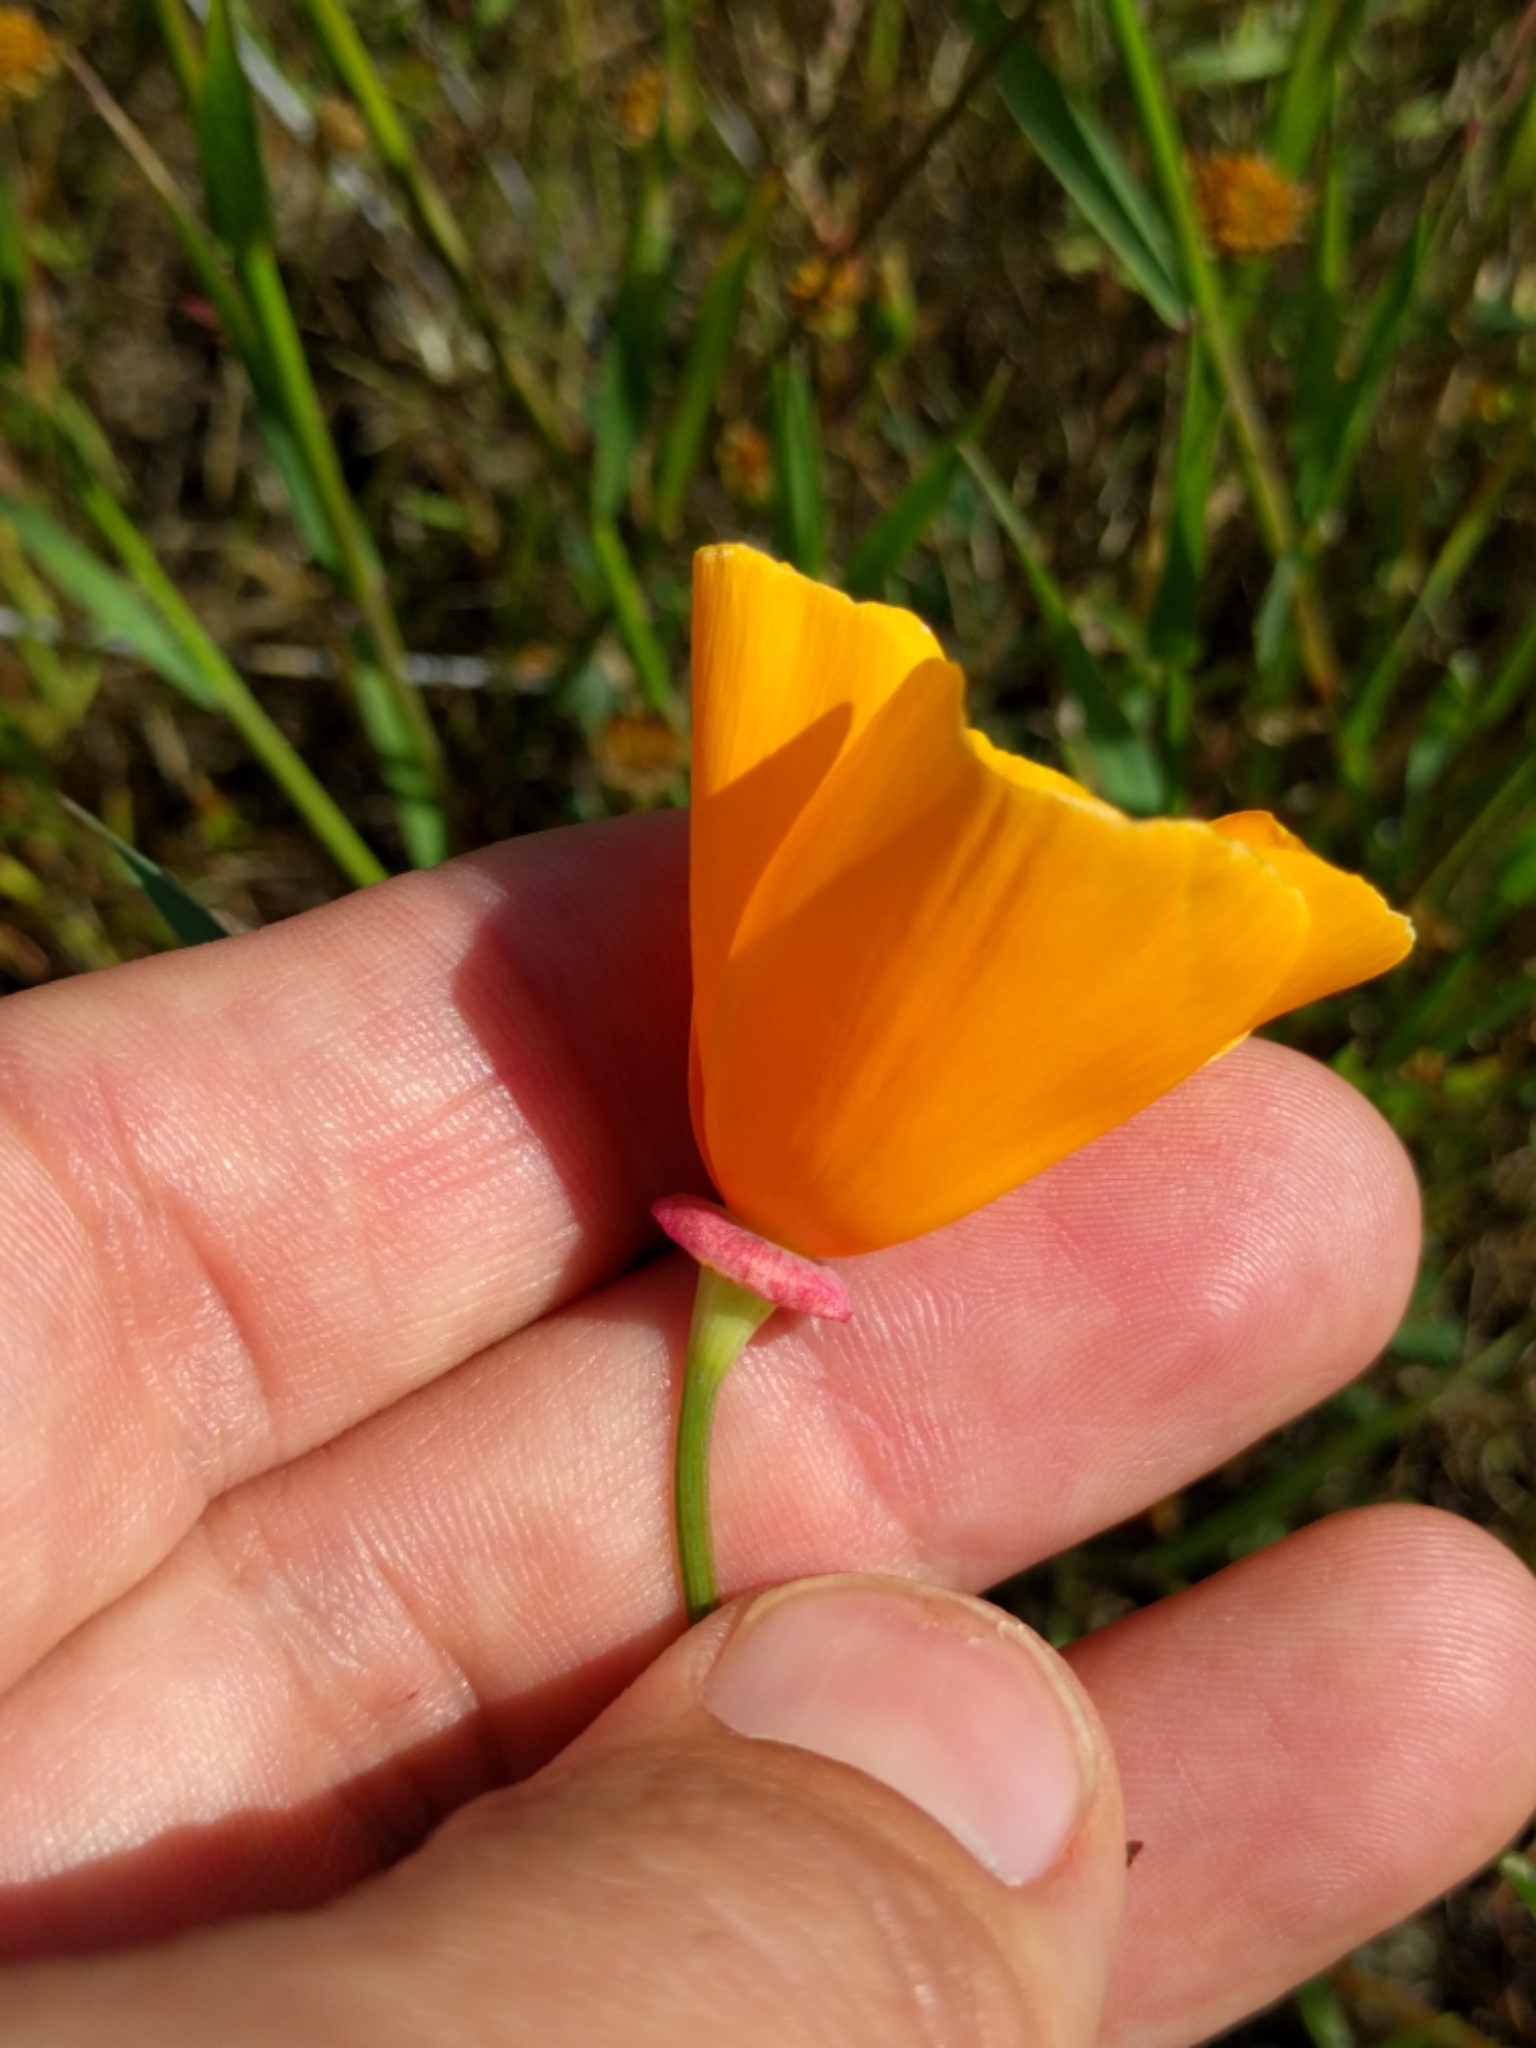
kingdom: Plantae
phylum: Tracheophyta
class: Magnoliopsida
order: Ranunculales
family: Papaveraceae
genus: Eschscholzia
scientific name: Eschscholzia californica
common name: California poppy
